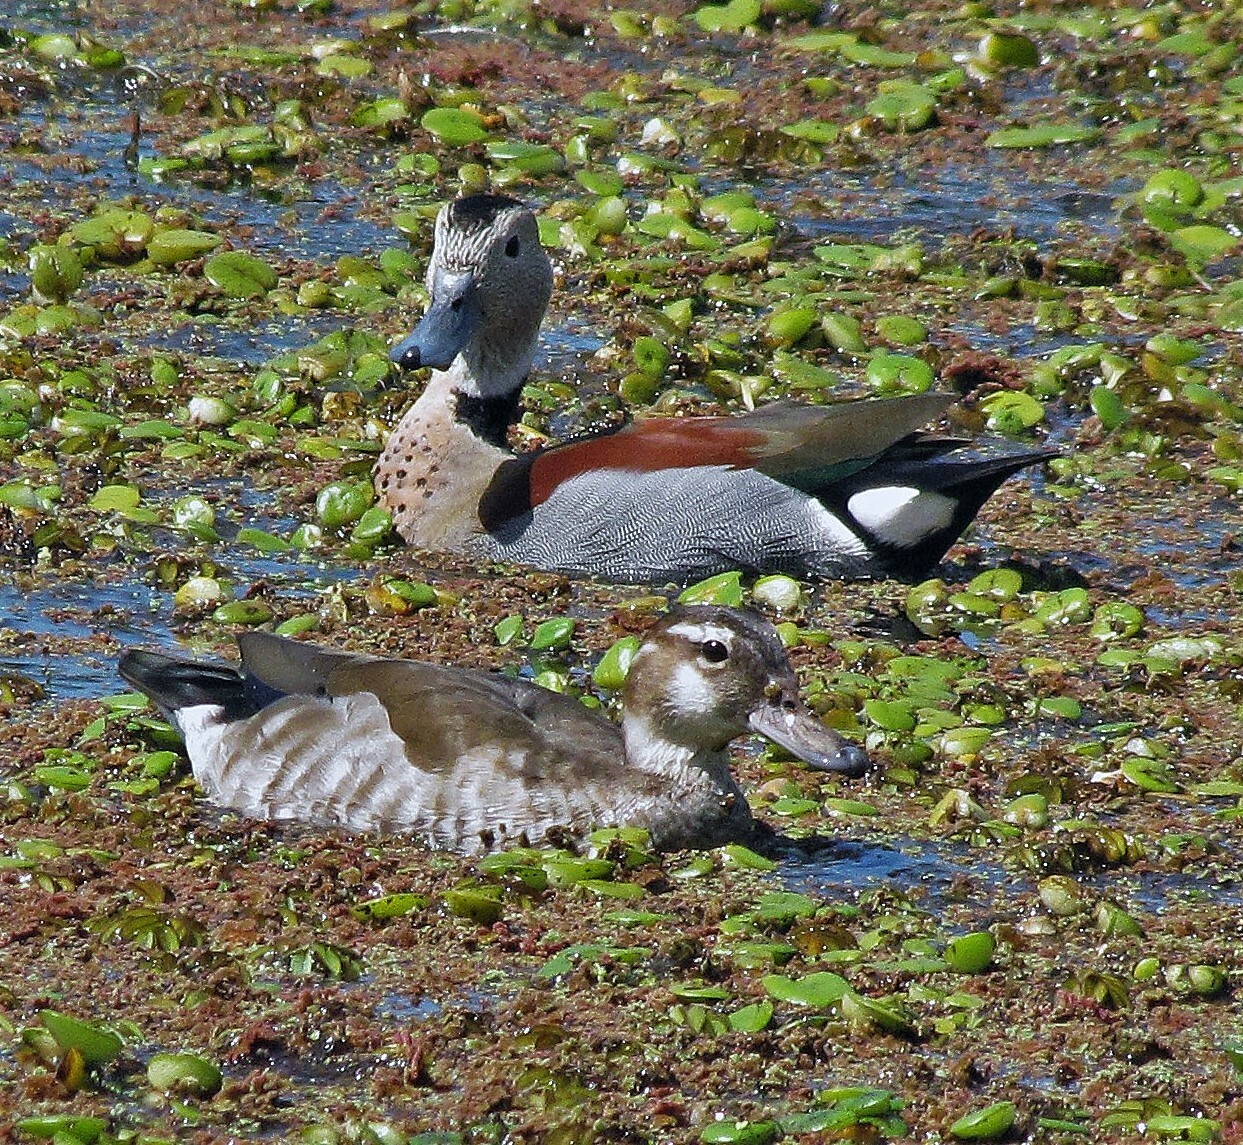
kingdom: Animalia
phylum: Chordata
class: Aves
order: Anseriformes
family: Anatidae
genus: Callonetta
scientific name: Callonetta leucophrys
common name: Ringed teal
